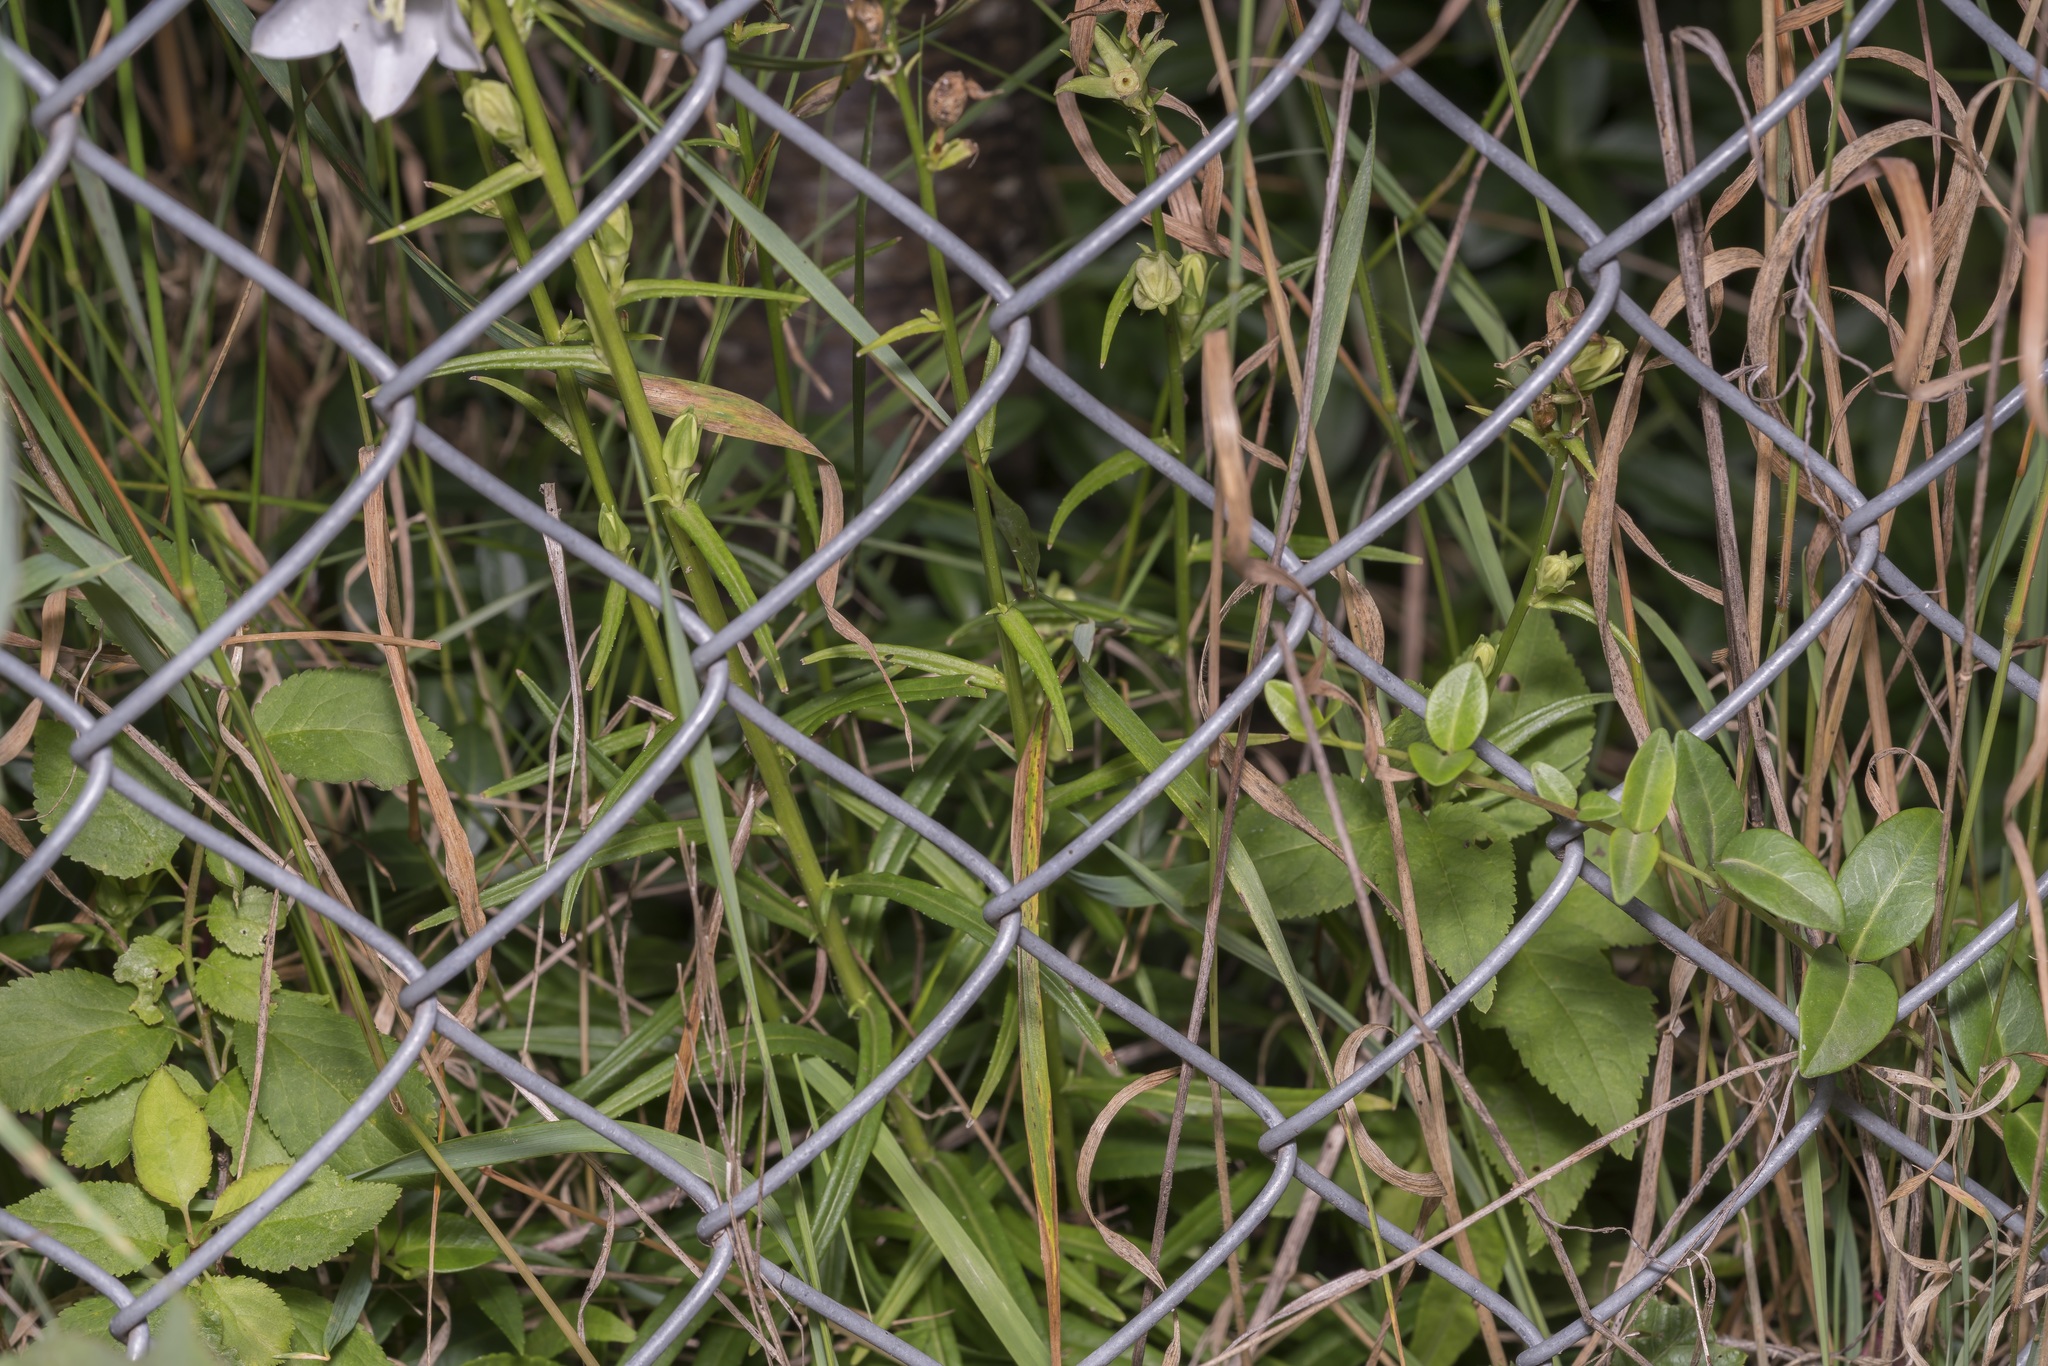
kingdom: Plantae
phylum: Tracheophyta
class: Magnoliopsida
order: Asterales
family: Campanulaceae
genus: Campanula
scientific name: Campanula persicifolia
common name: Peach-leaved bellflower
